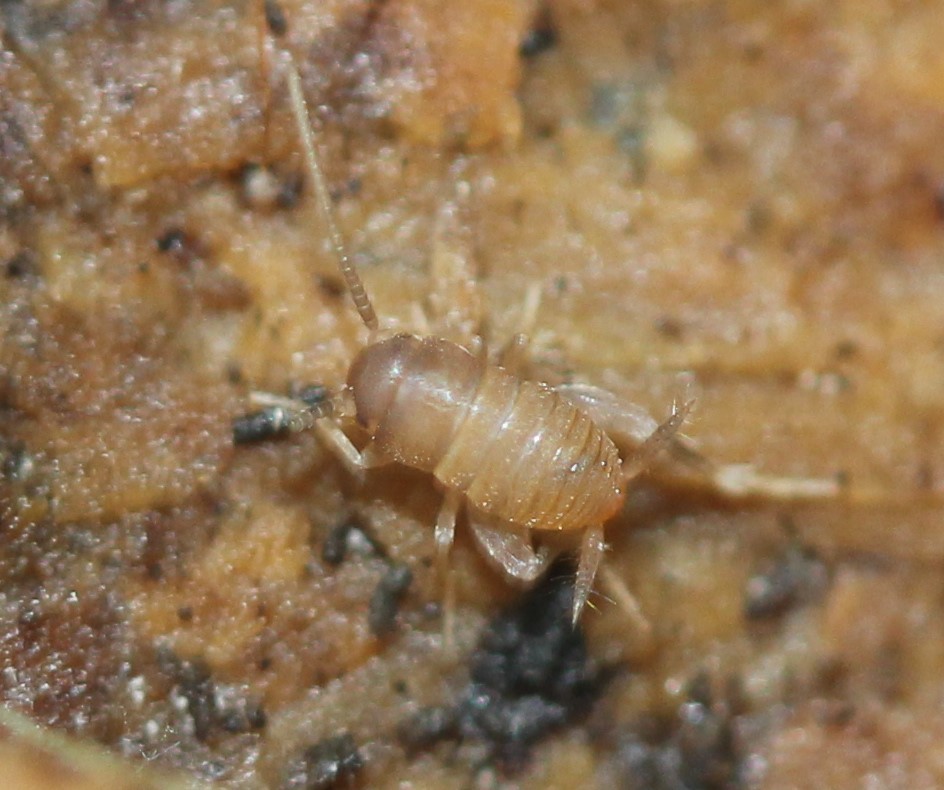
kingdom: Animalia
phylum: Arthropoda
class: Insecta
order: Orthoptera
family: Myrmecophilidae
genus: Myrmecophilus
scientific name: Myrmecophilus pergandei
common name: Eastern ant cricket
